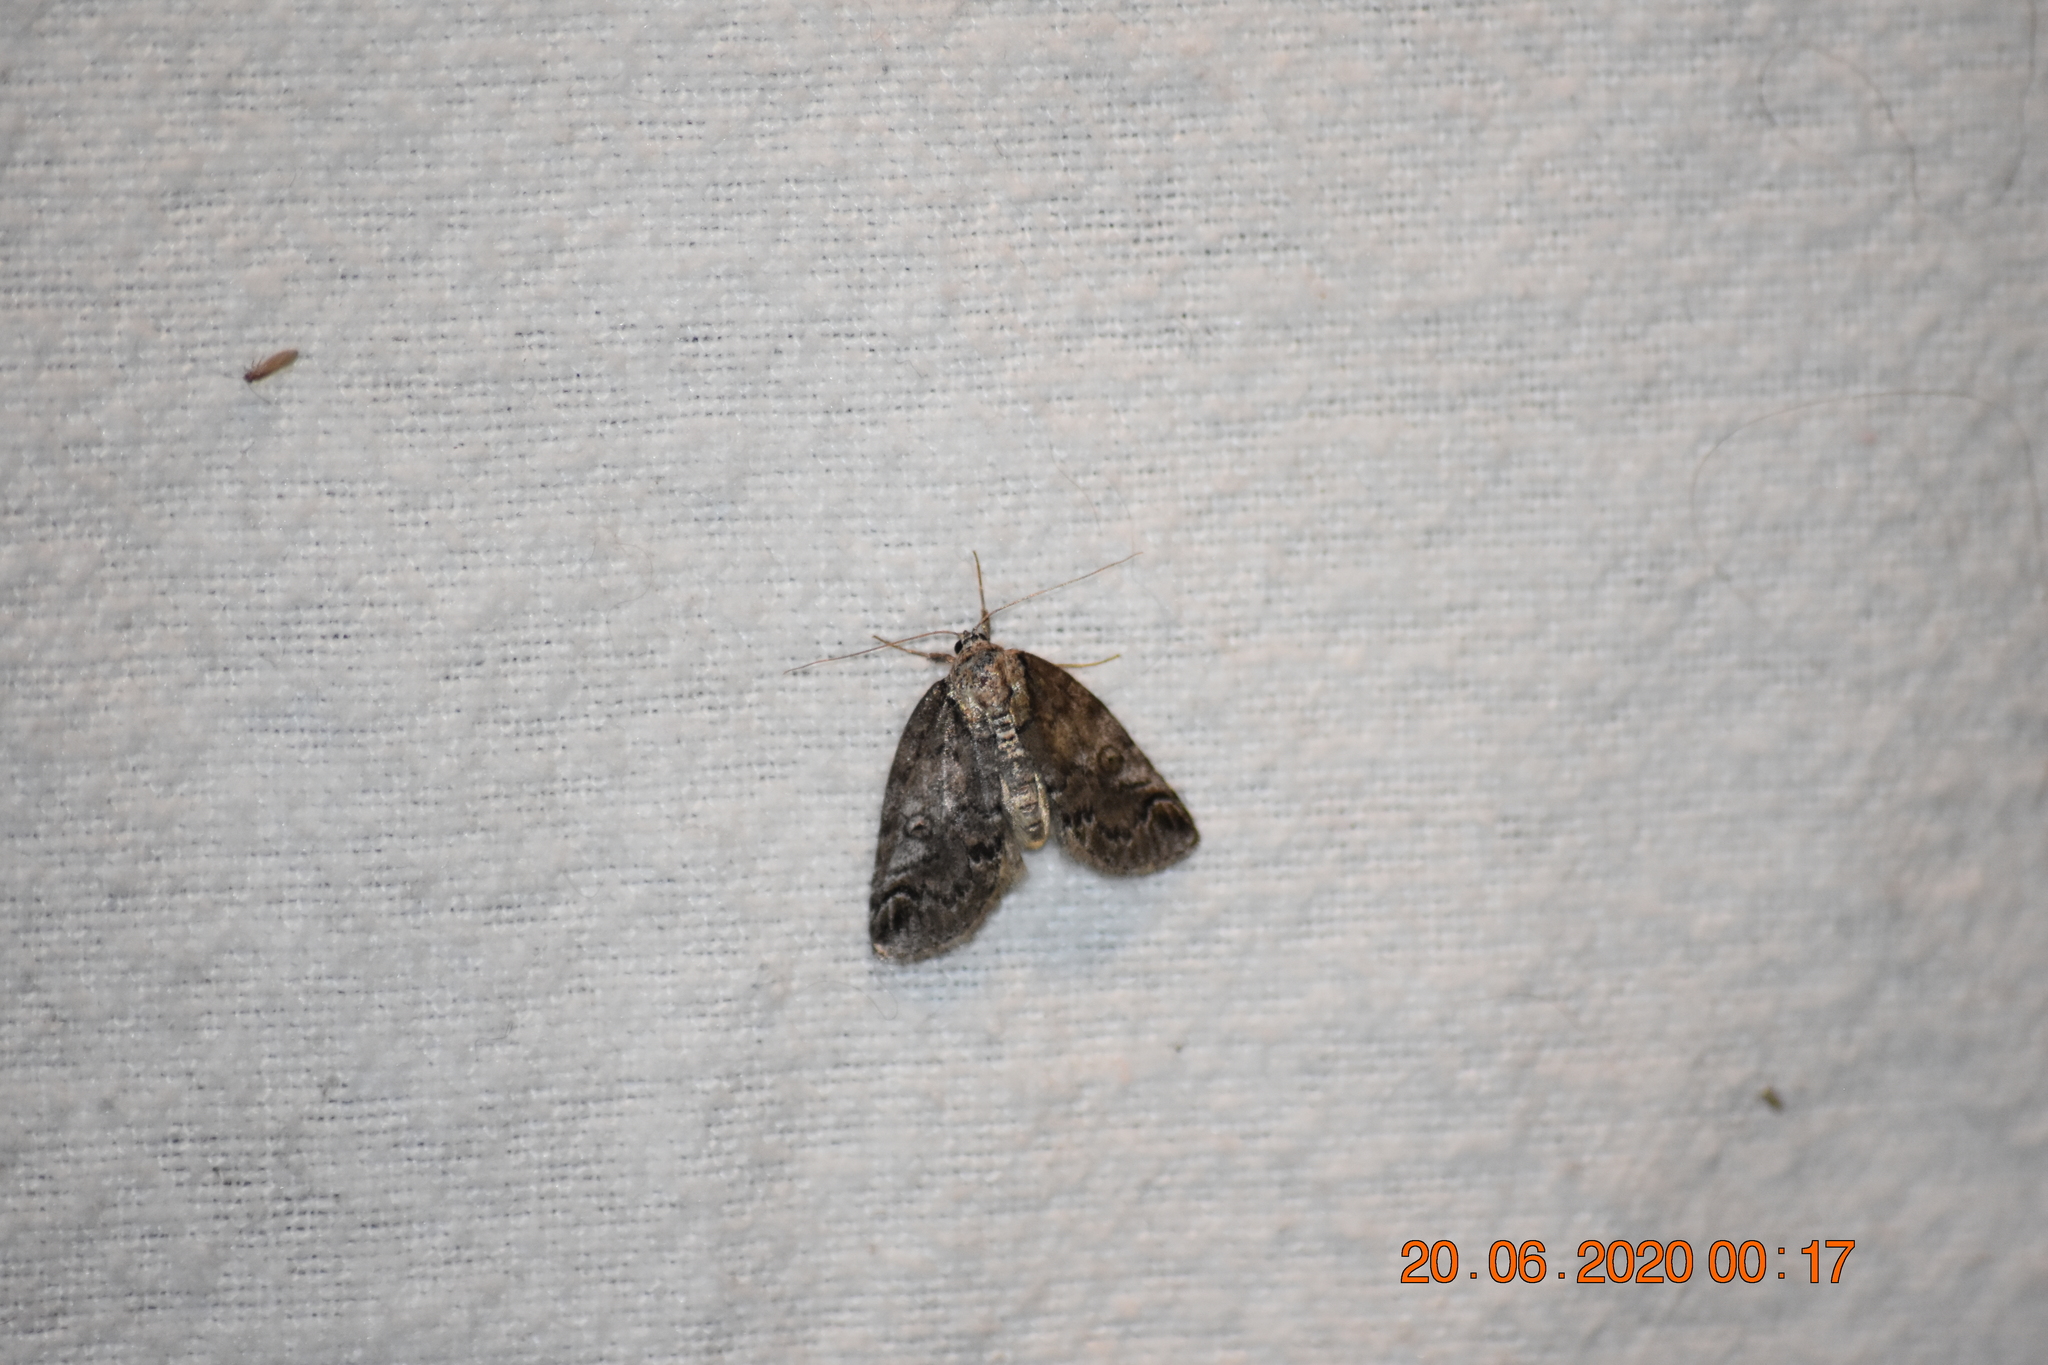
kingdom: Animalia
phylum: Arthropoda
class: Insecta
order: Lepidoptera
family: Nolidae
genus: Baileya
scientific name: Baileya ophthalmica
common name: Eyed baileya moth
